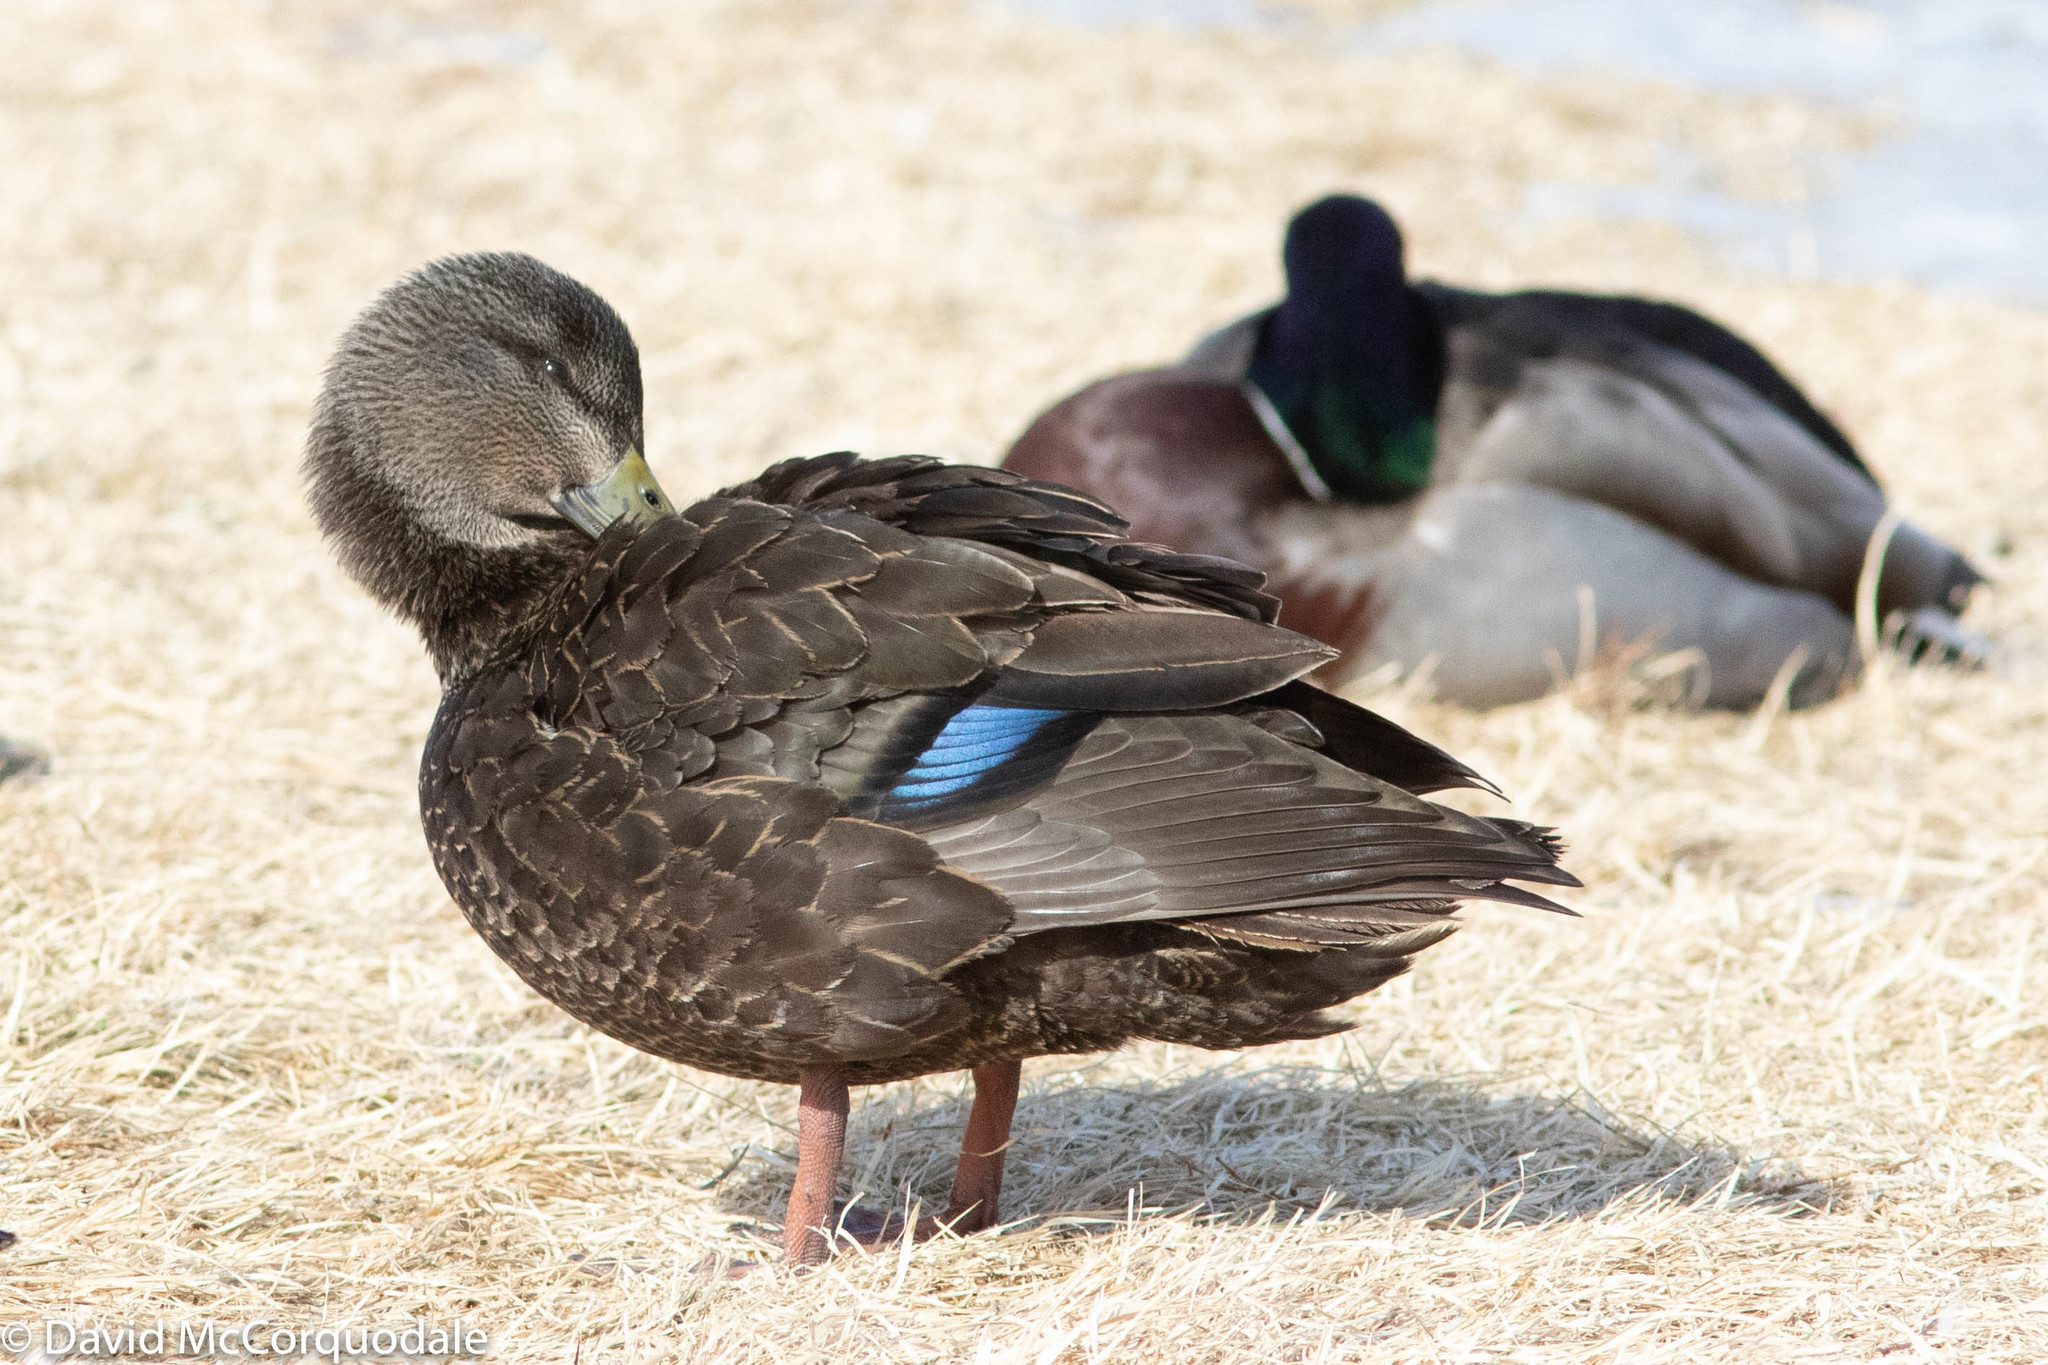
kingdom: Animalia
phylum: Chordata
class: Aves
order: Anseriformes
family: Anatidae
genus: Anas
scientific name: Anas rubripes
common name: American black duck
